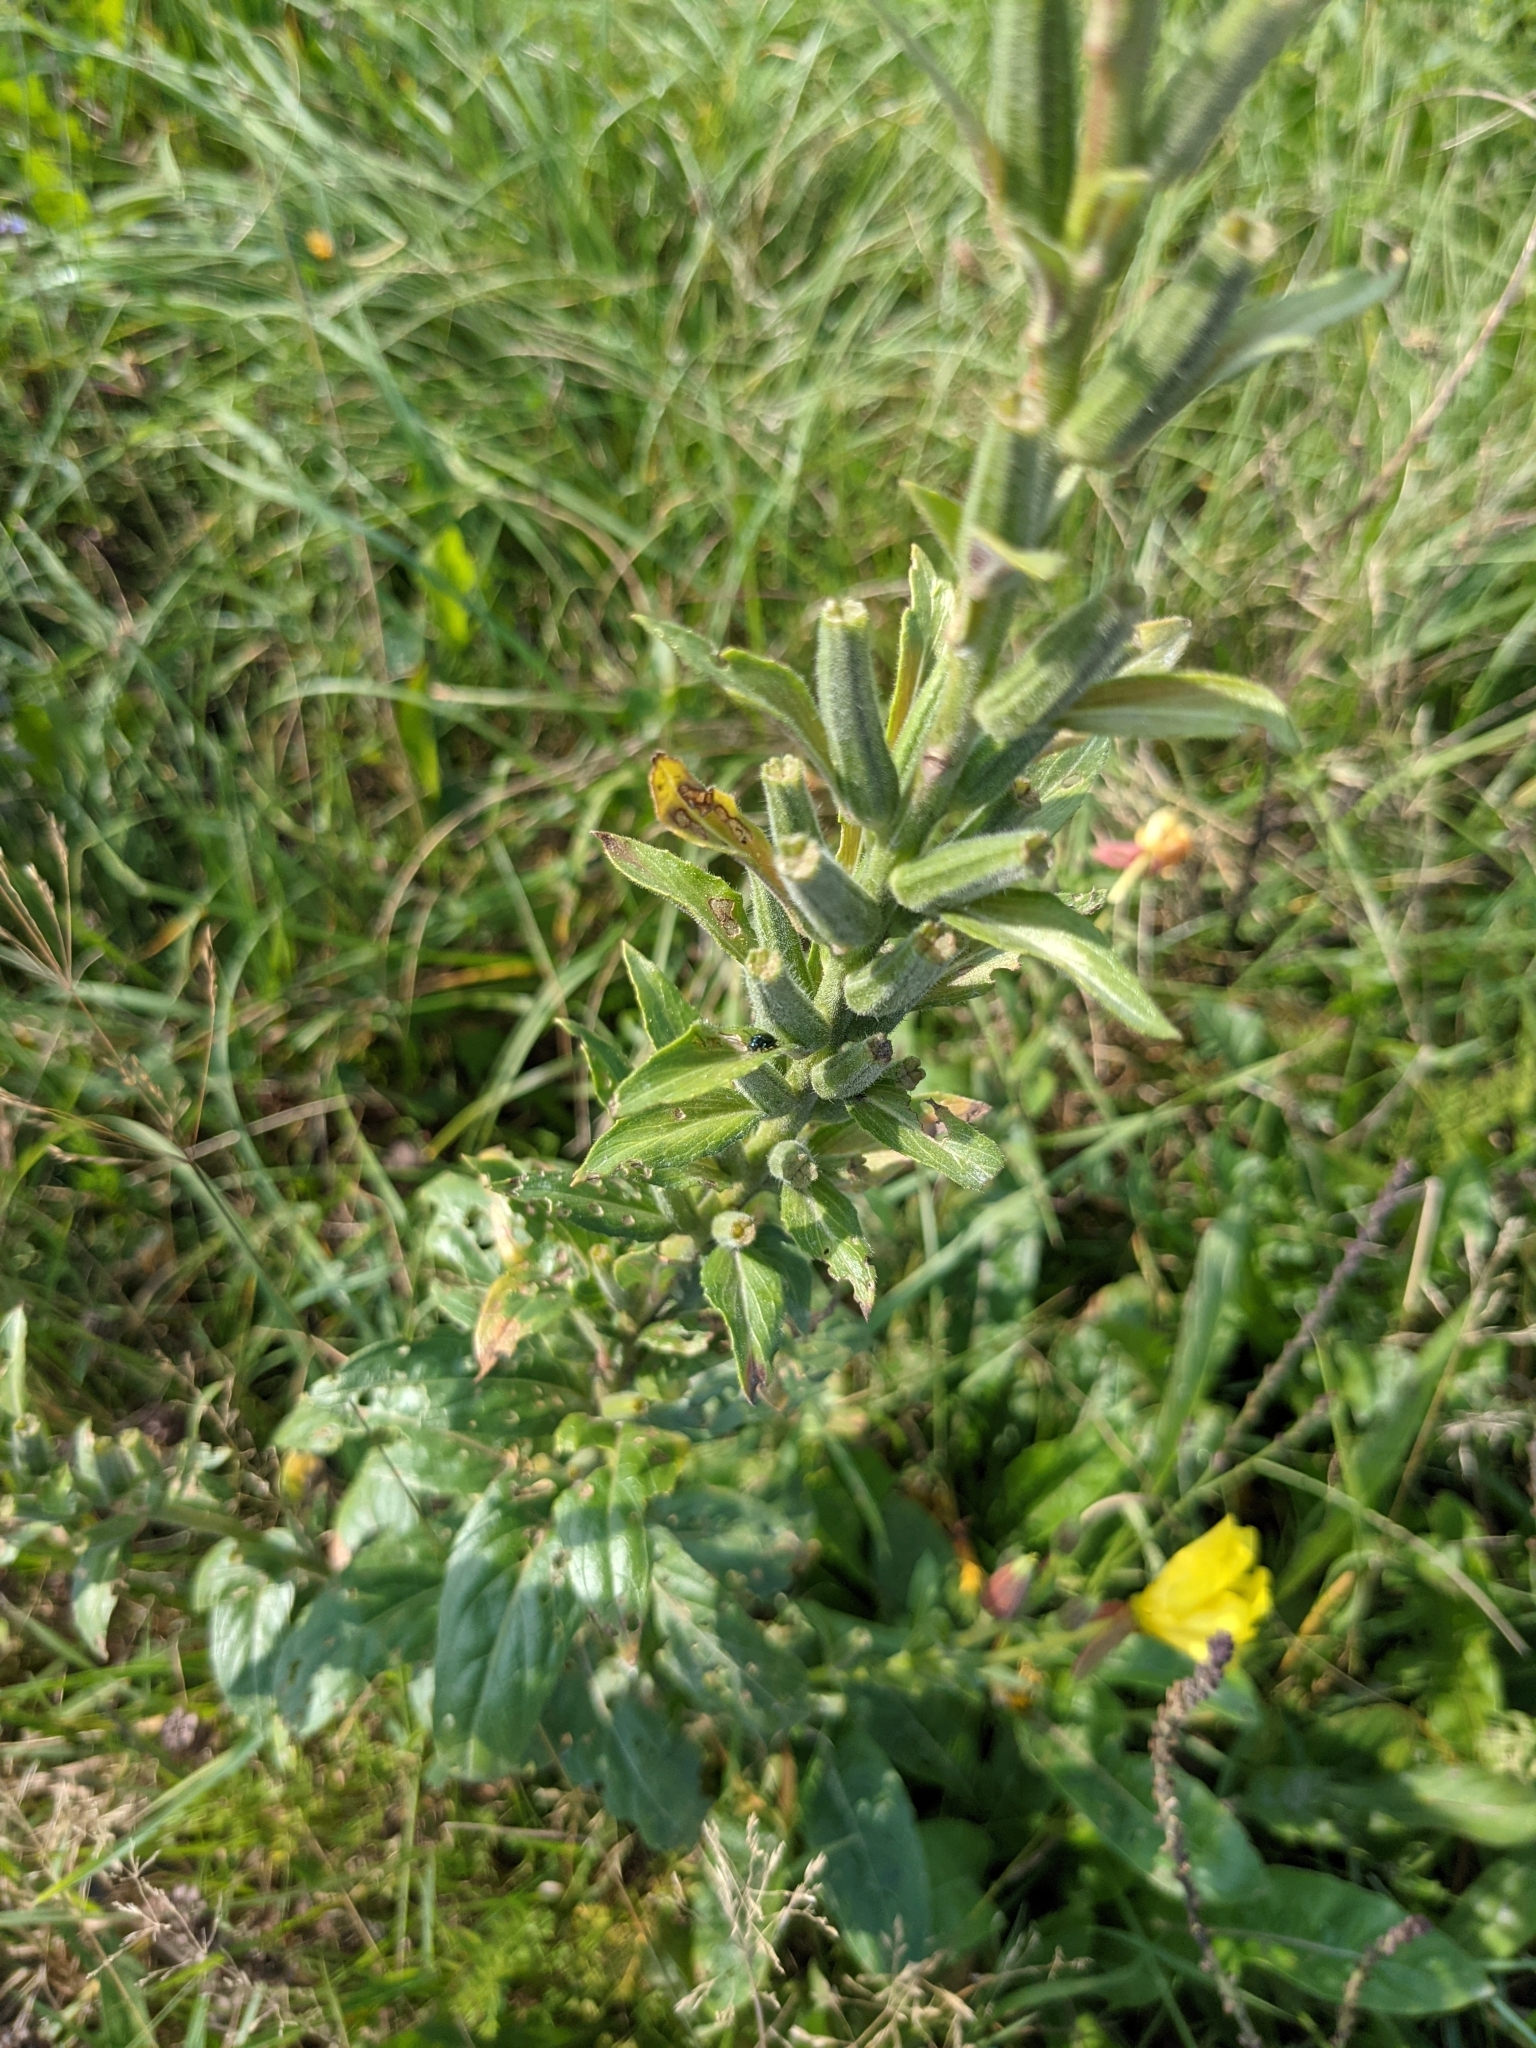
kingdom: Plantae
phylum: Tracheophyta
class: Magnoliopsida
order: Myrtales
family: Onagraceae
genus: Oenothera
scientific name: Oenothera glazioviana
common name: Large-flowered evening-primrose
